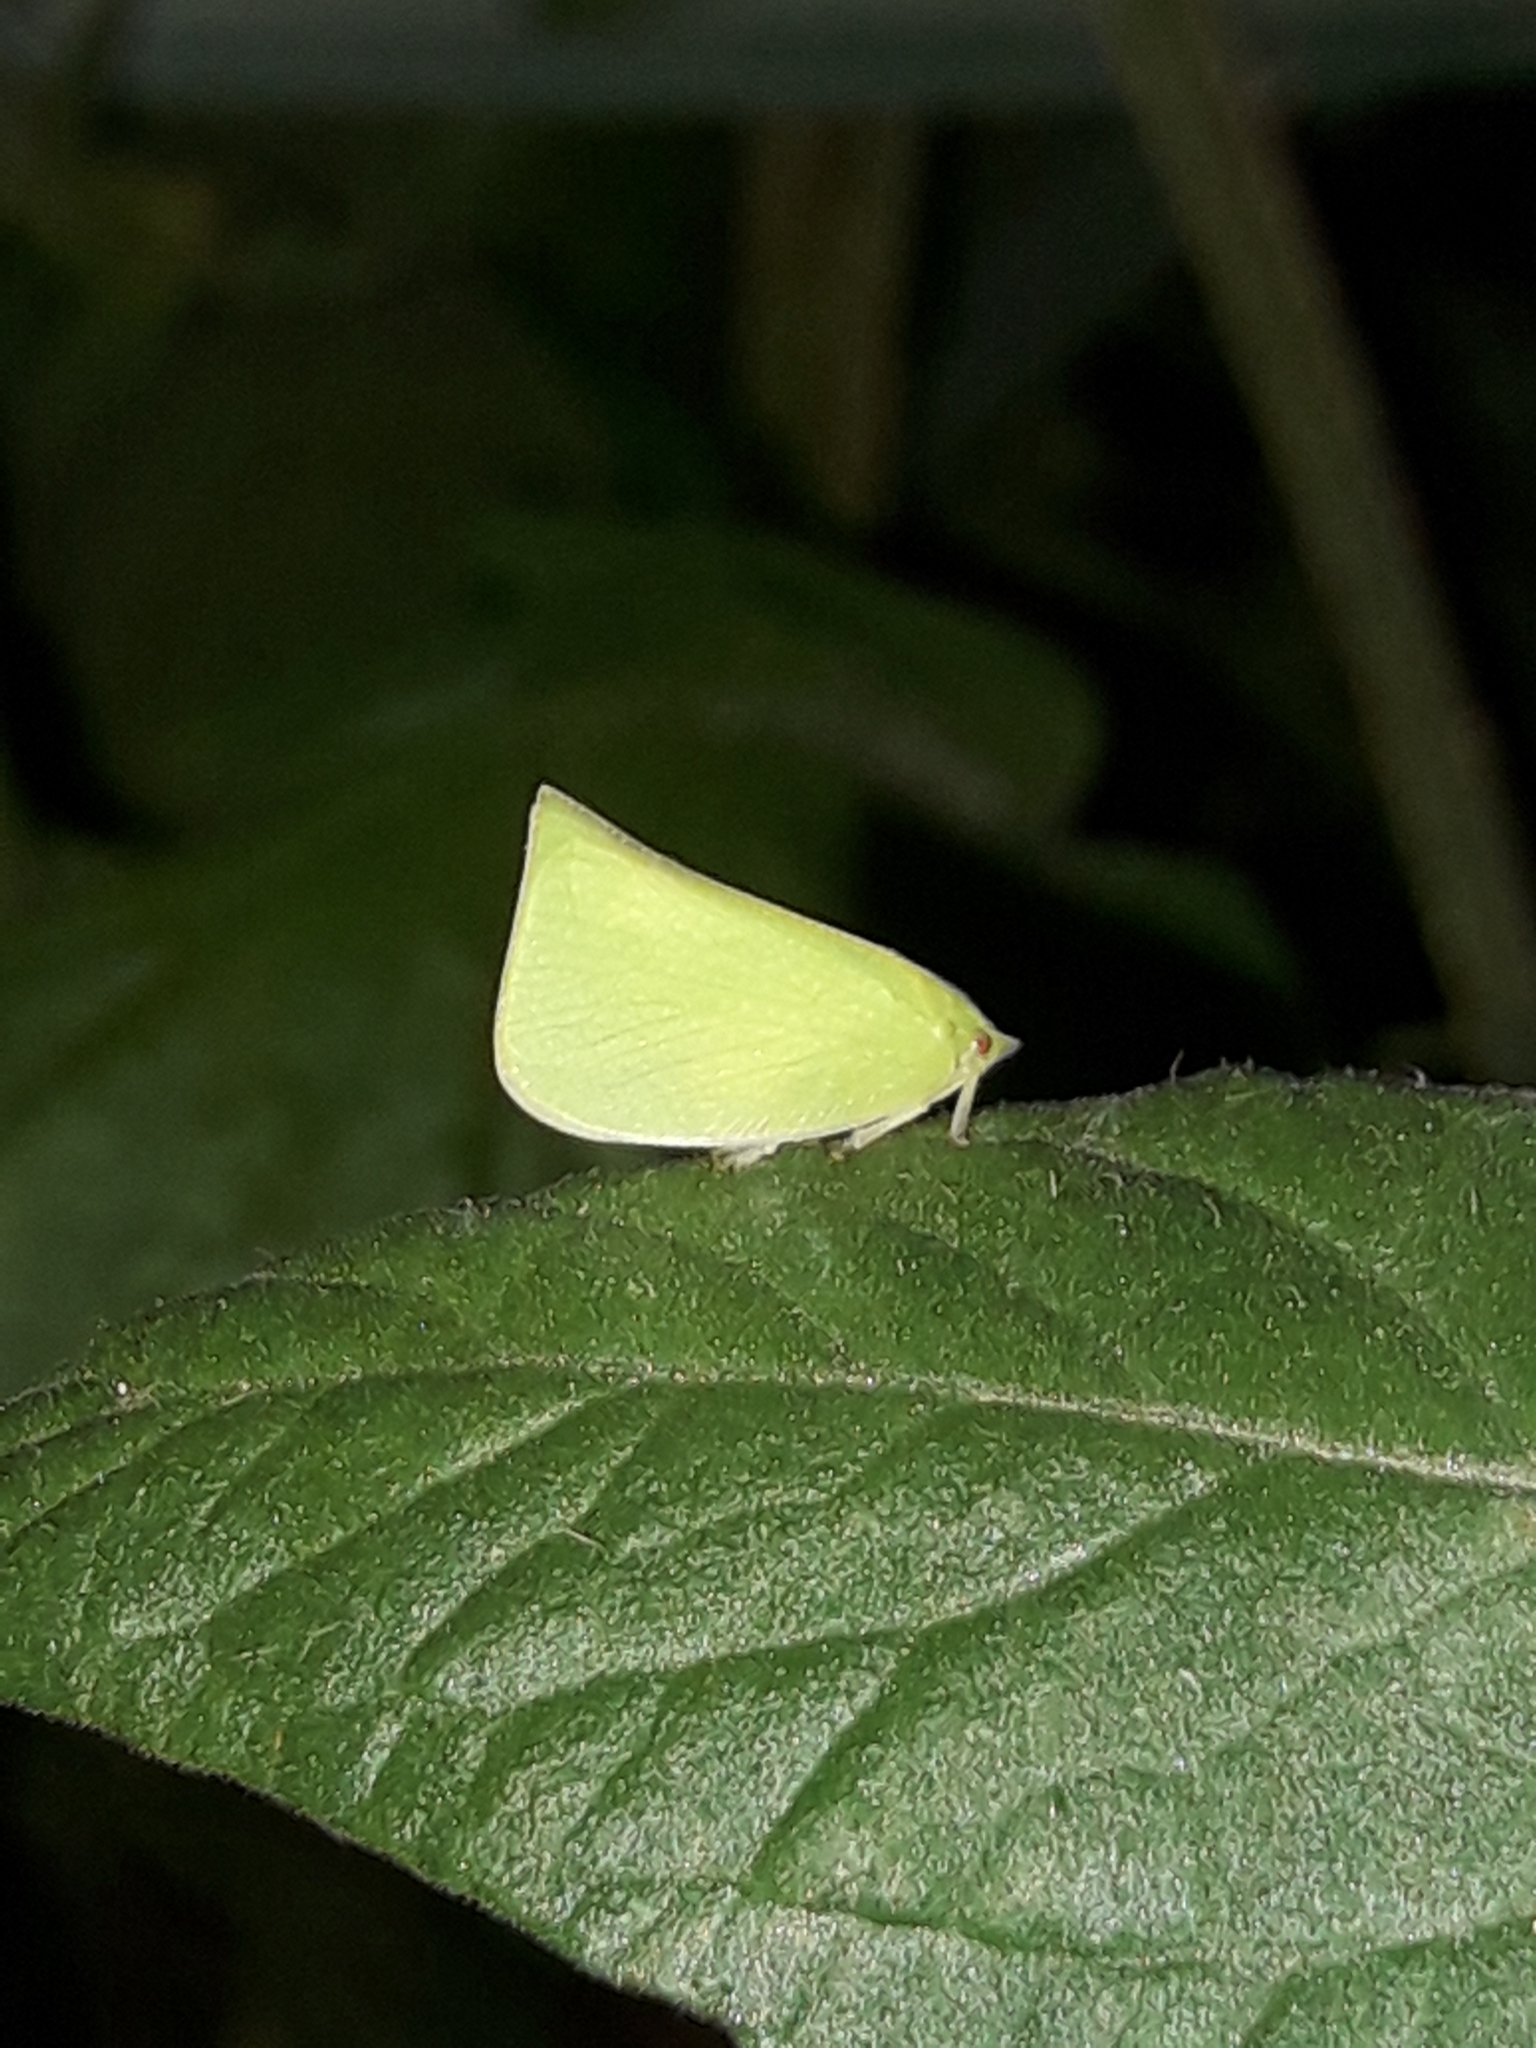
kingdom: Animalia
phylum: Arthropoda
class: Insecta
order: Hemiptera
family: Flatidae
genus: Siphanta
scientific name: Siphanta acuta
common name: Torpedo bug
